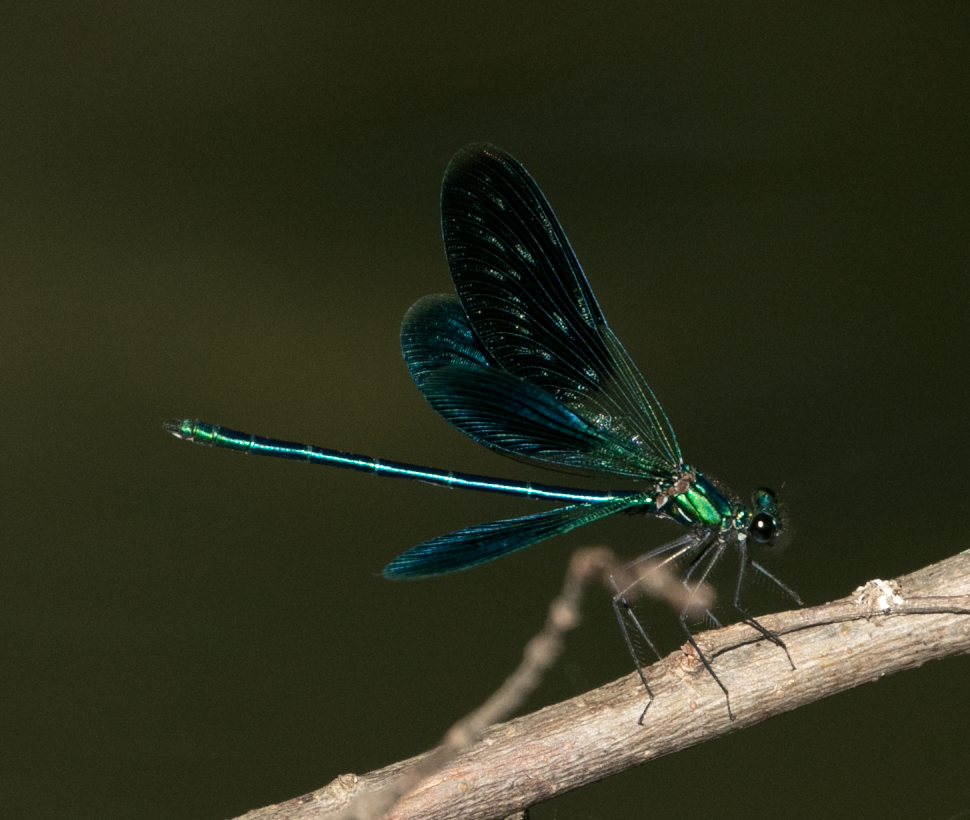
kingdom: Animalia
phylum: Arthropoda
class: Insecta
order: Odonata
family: Calopterygidae
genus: Calopteryx
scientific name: Calopteryx splendens
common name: Banded demoiselle
